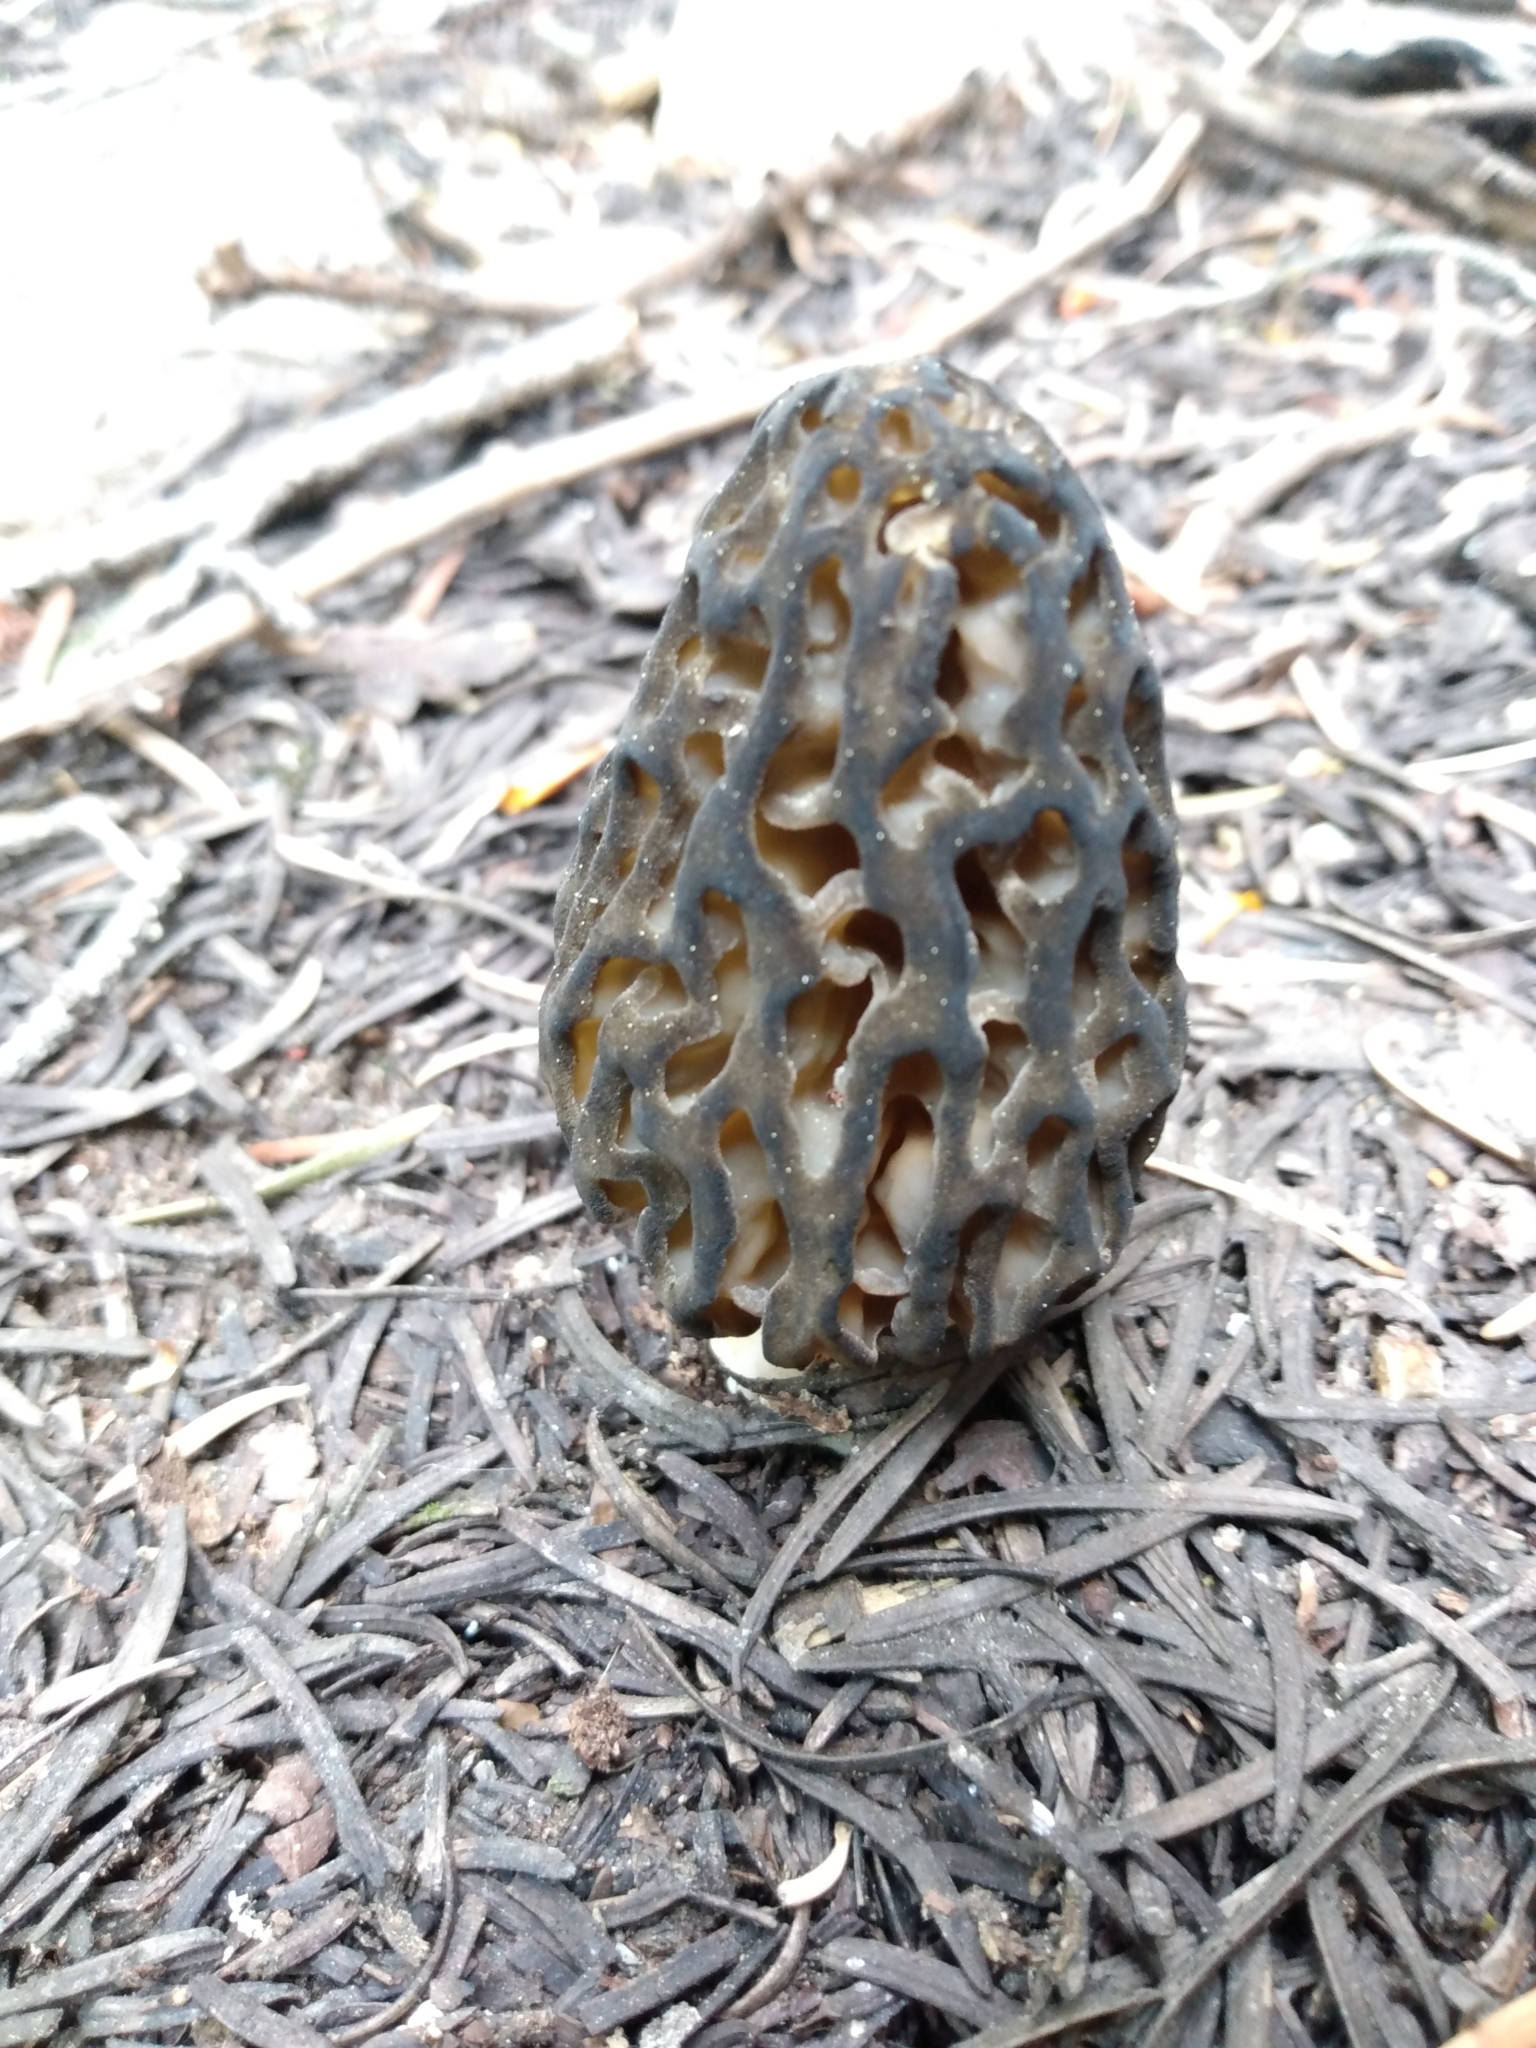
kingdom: Fungi
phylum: Ascomycota
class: Pezizomycetes
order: Pezizales
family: Morchellaceae
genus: Morchella
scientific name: Morchella snyderi
